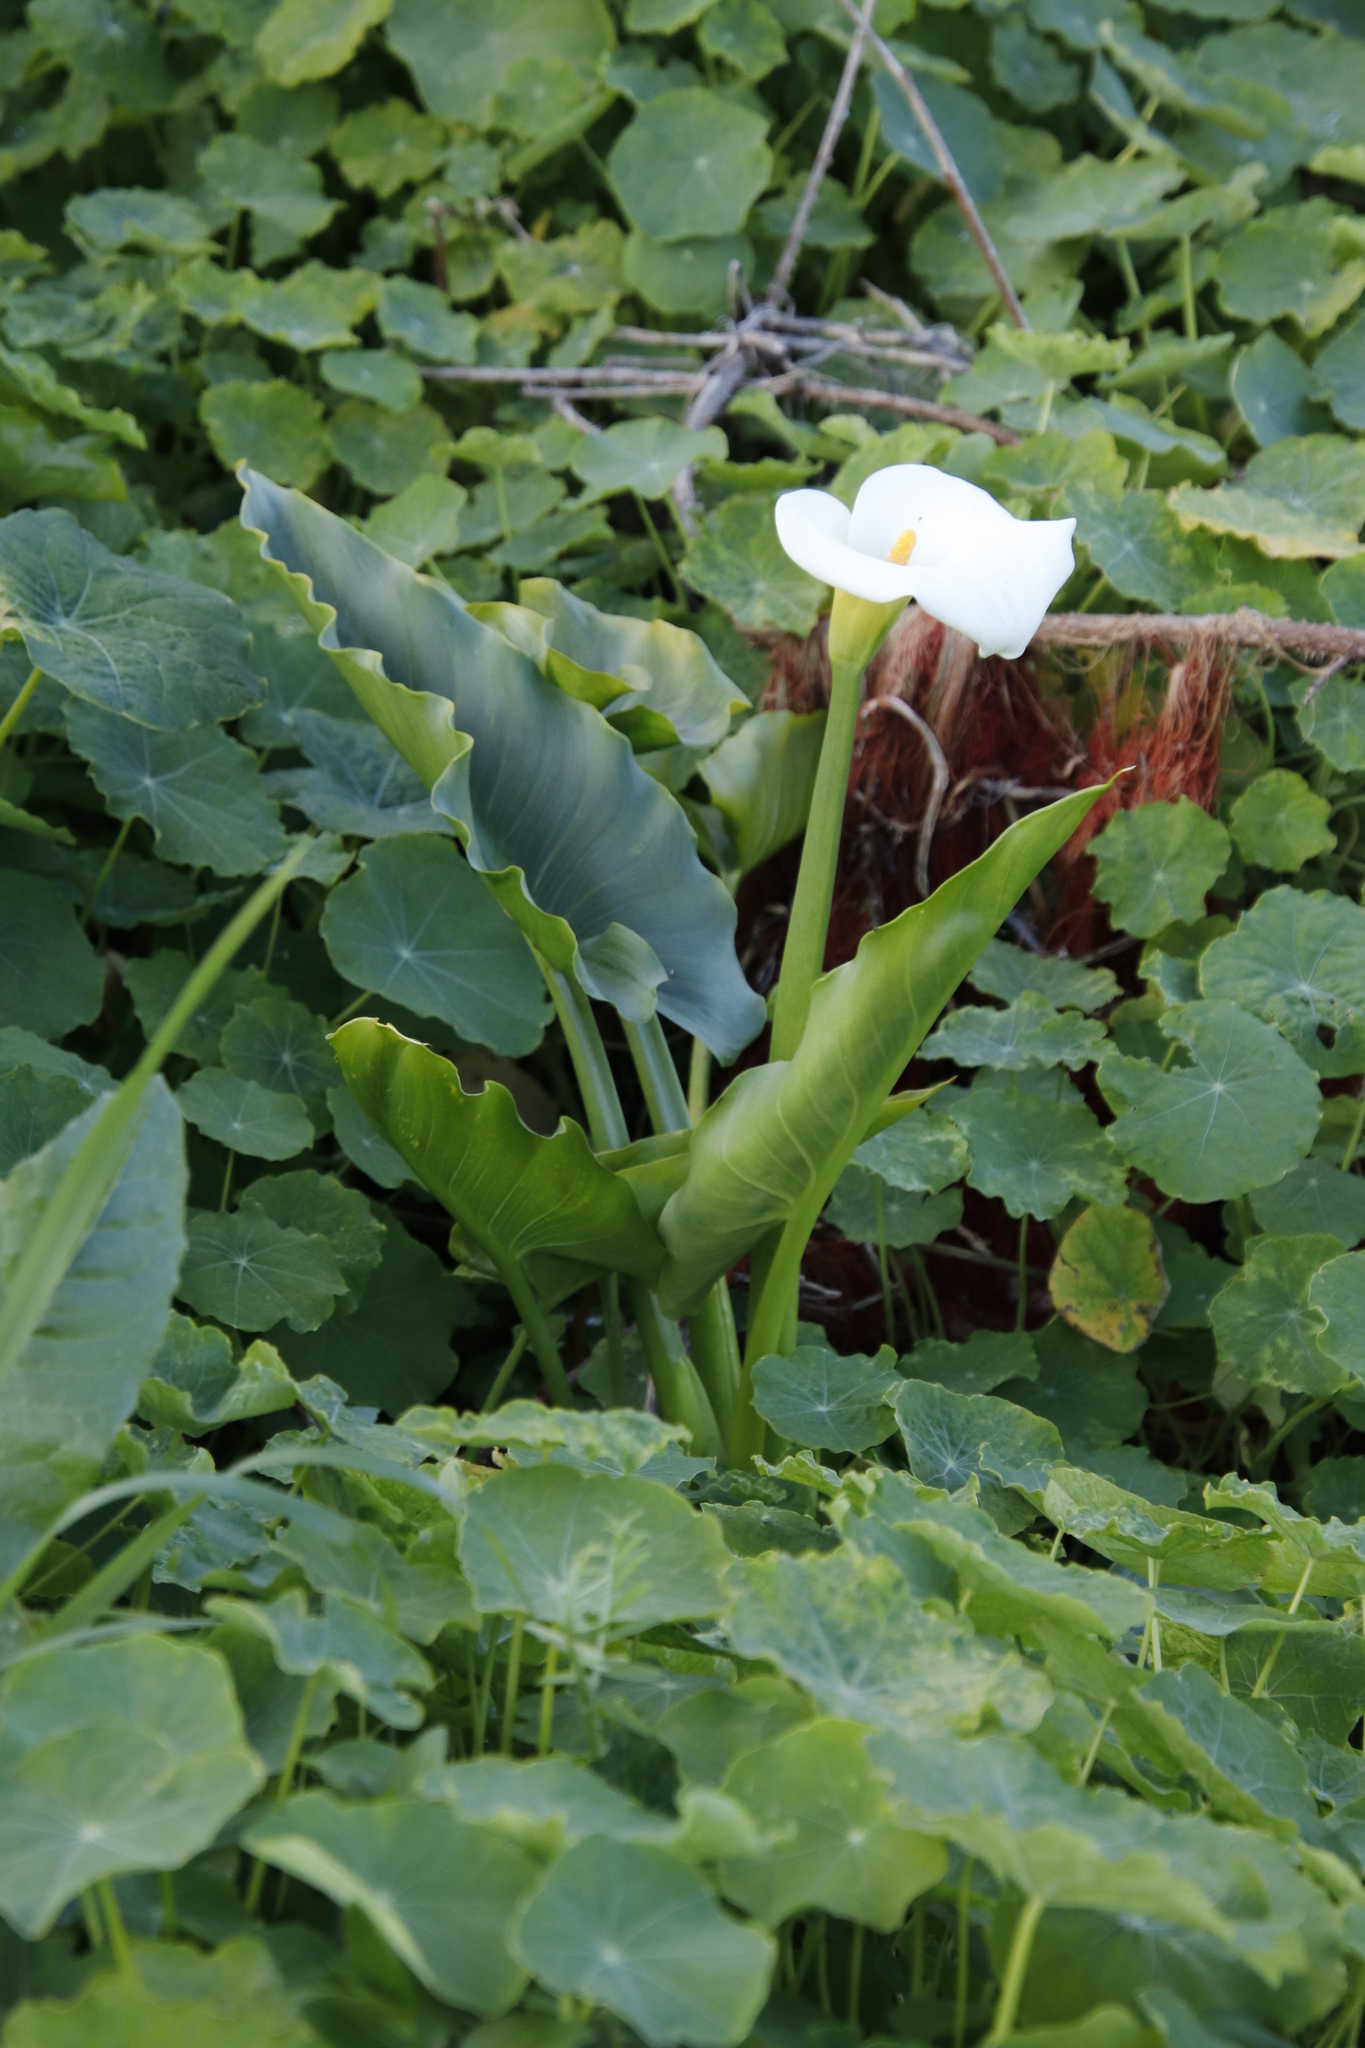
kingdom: Plantae
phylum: Tracheophyta
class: Liliopsida
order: Alismatales
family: Araceae
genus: Zantedeschia
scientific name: Zantedeschia aethiopica
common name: Altar-lily
